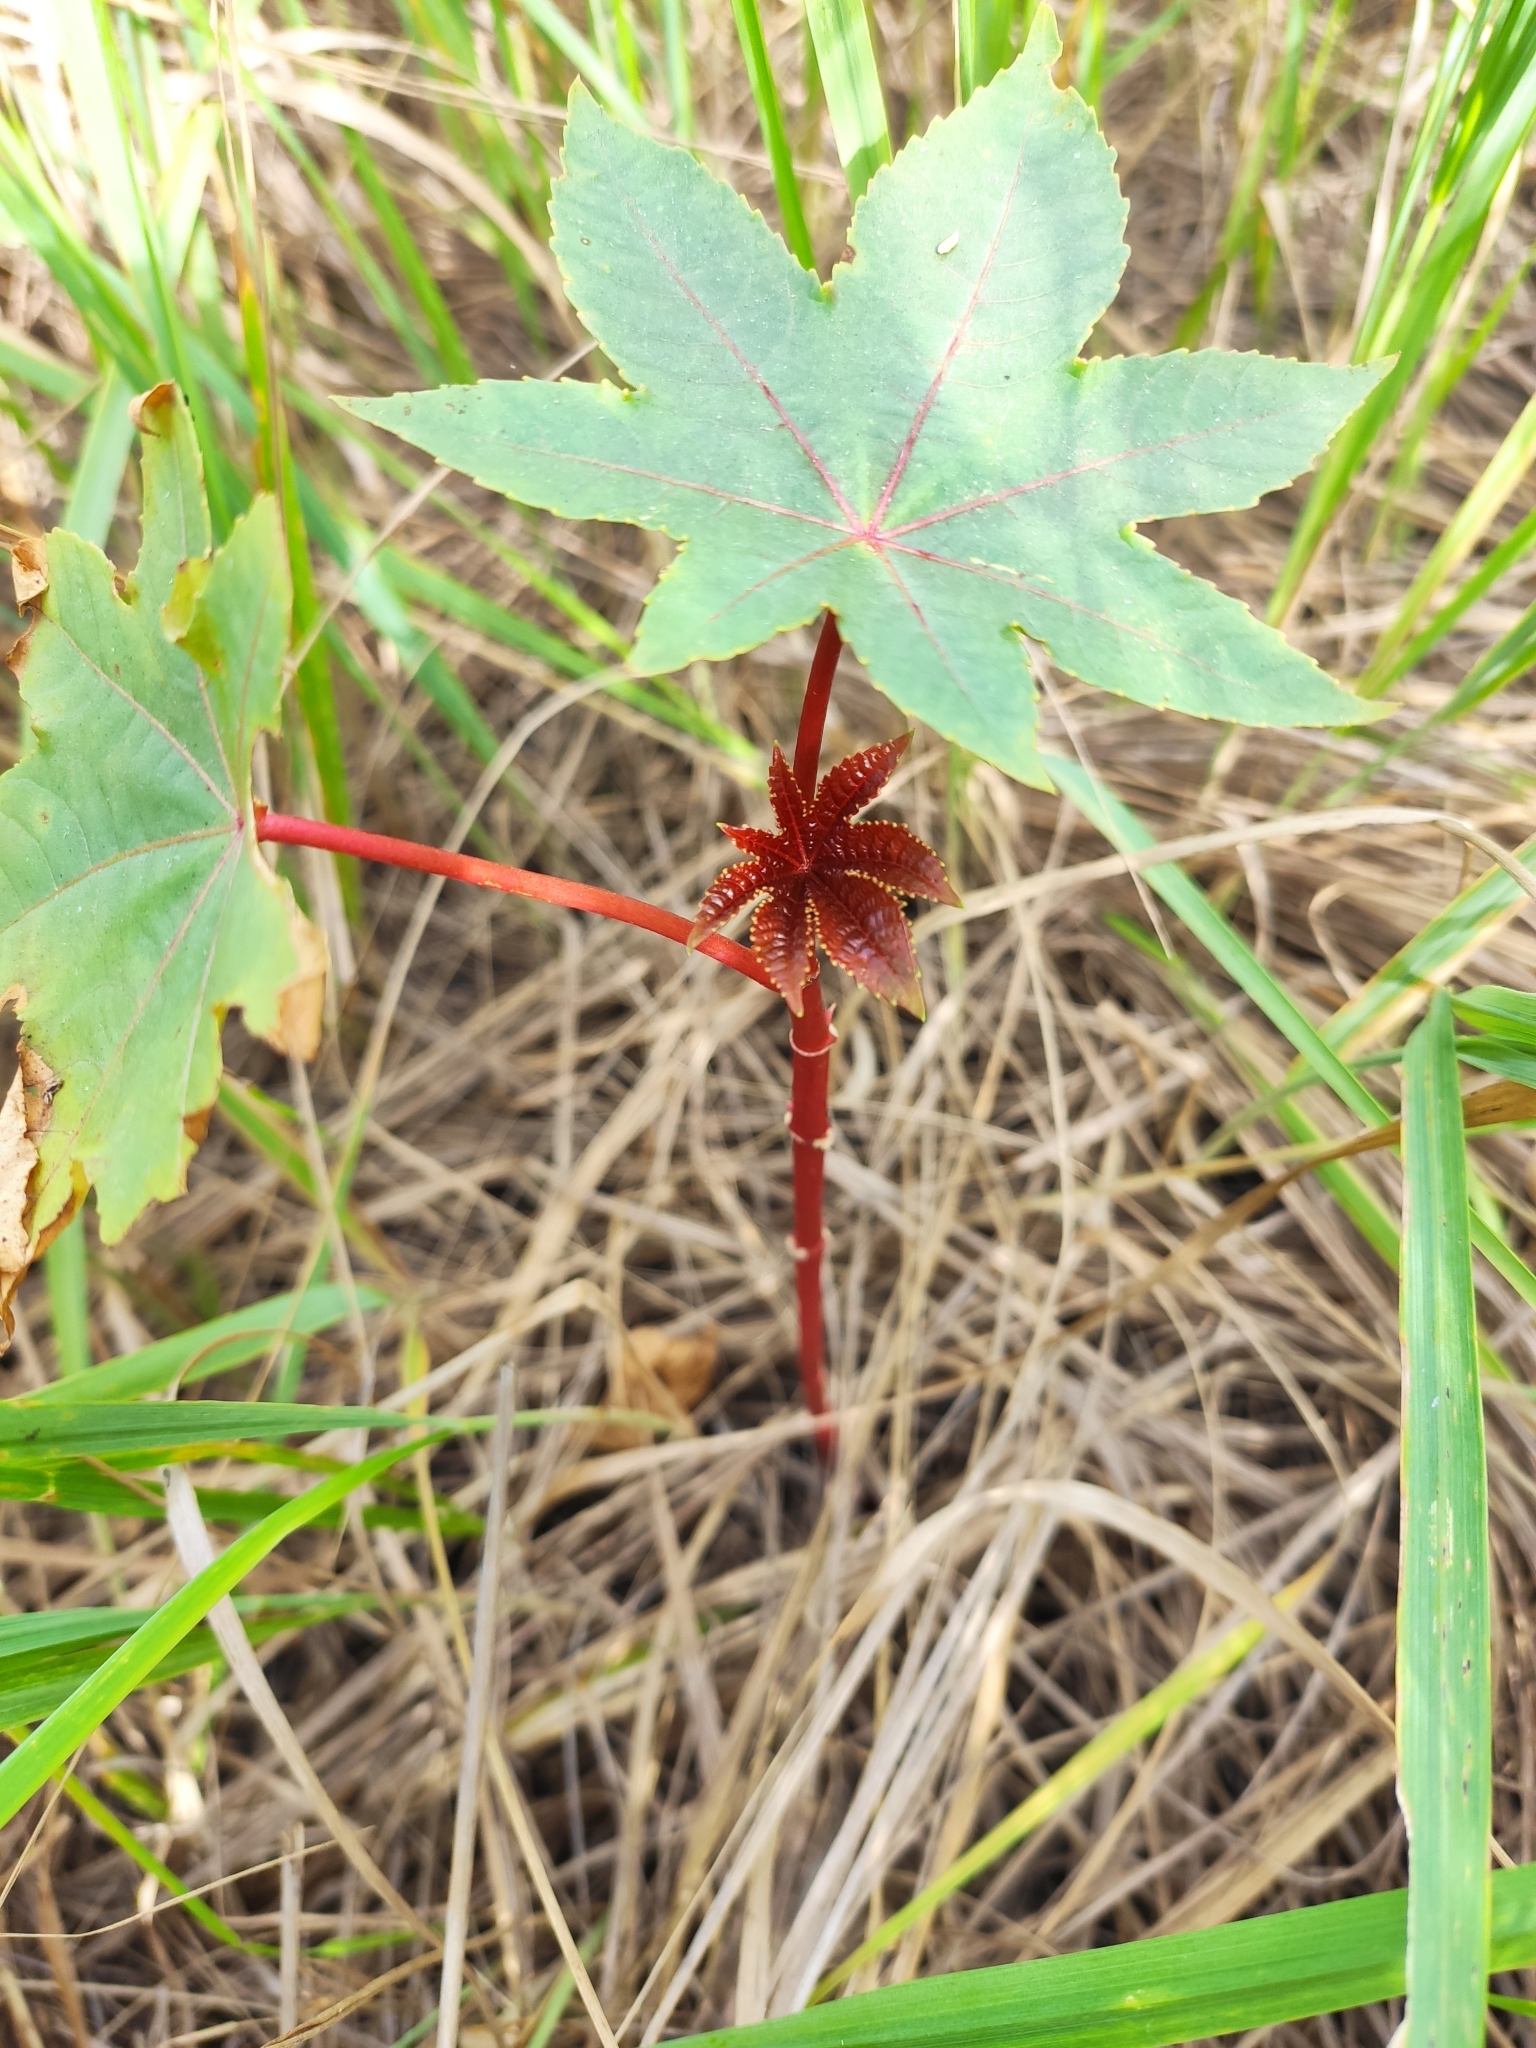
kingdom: Plantae
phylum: Tracheophyta
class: Magnoliopsida
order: Malpighiales
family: Euphorbiaceae
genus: Ricinus
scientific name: Ricinus communis
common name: Castor-oil-plant
